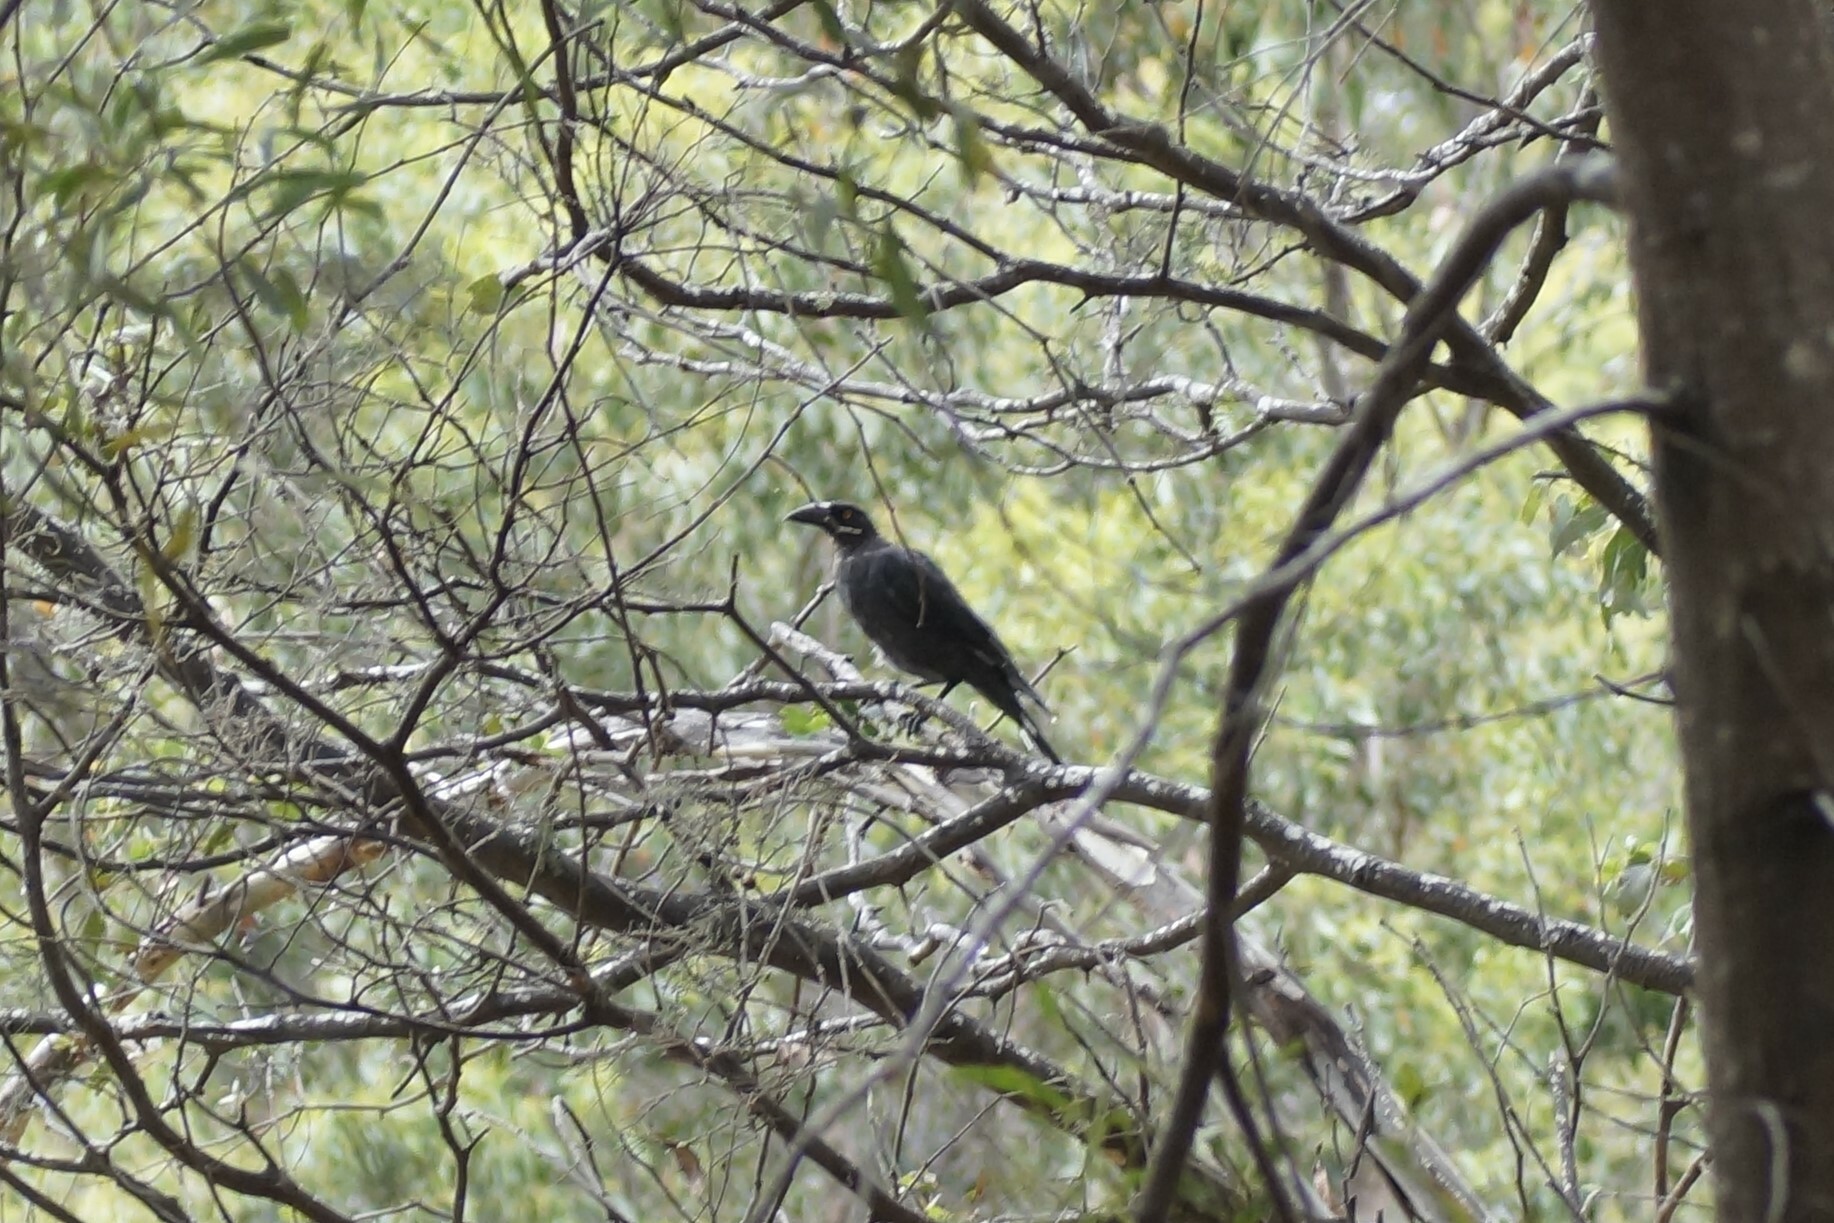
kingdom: Animalia
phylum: Chordata
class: Aves
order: Passeriformes
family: Cracticidae
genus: Strepera
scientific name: Strepera fuliginosa
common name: Black currawong
